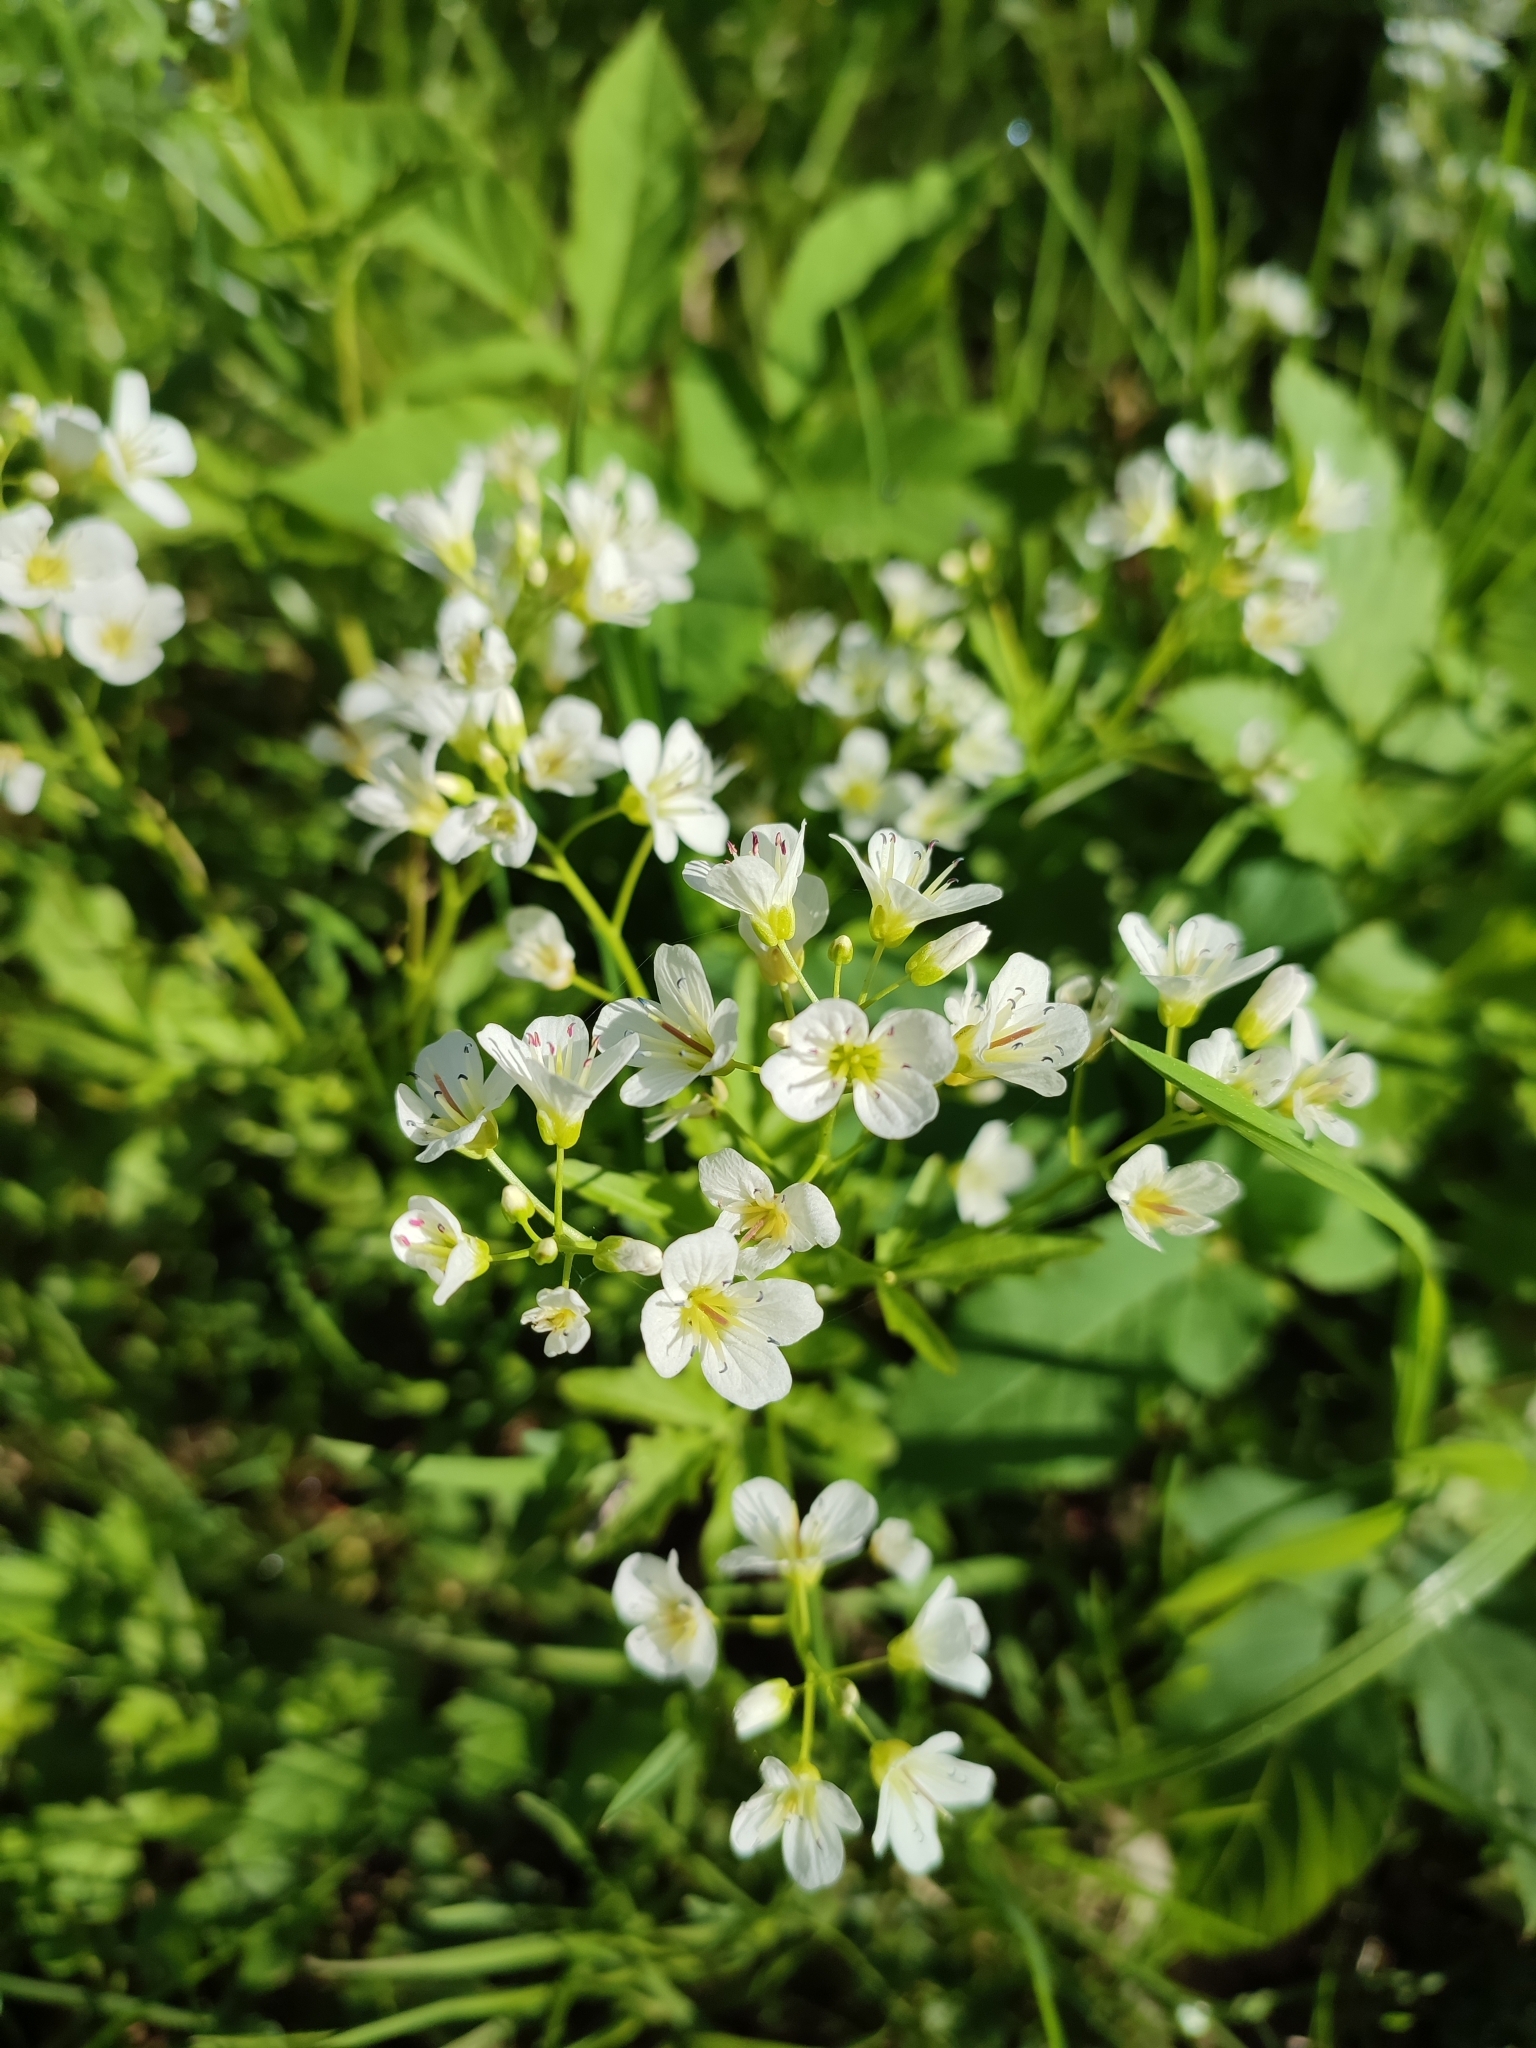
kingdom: Plantae
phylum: Tracheophyta
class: Magnoliopsida
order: Brassicales
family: Brassicaceae
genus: Cardamine
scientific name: Cardamine amara
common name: Large bitter-cress
